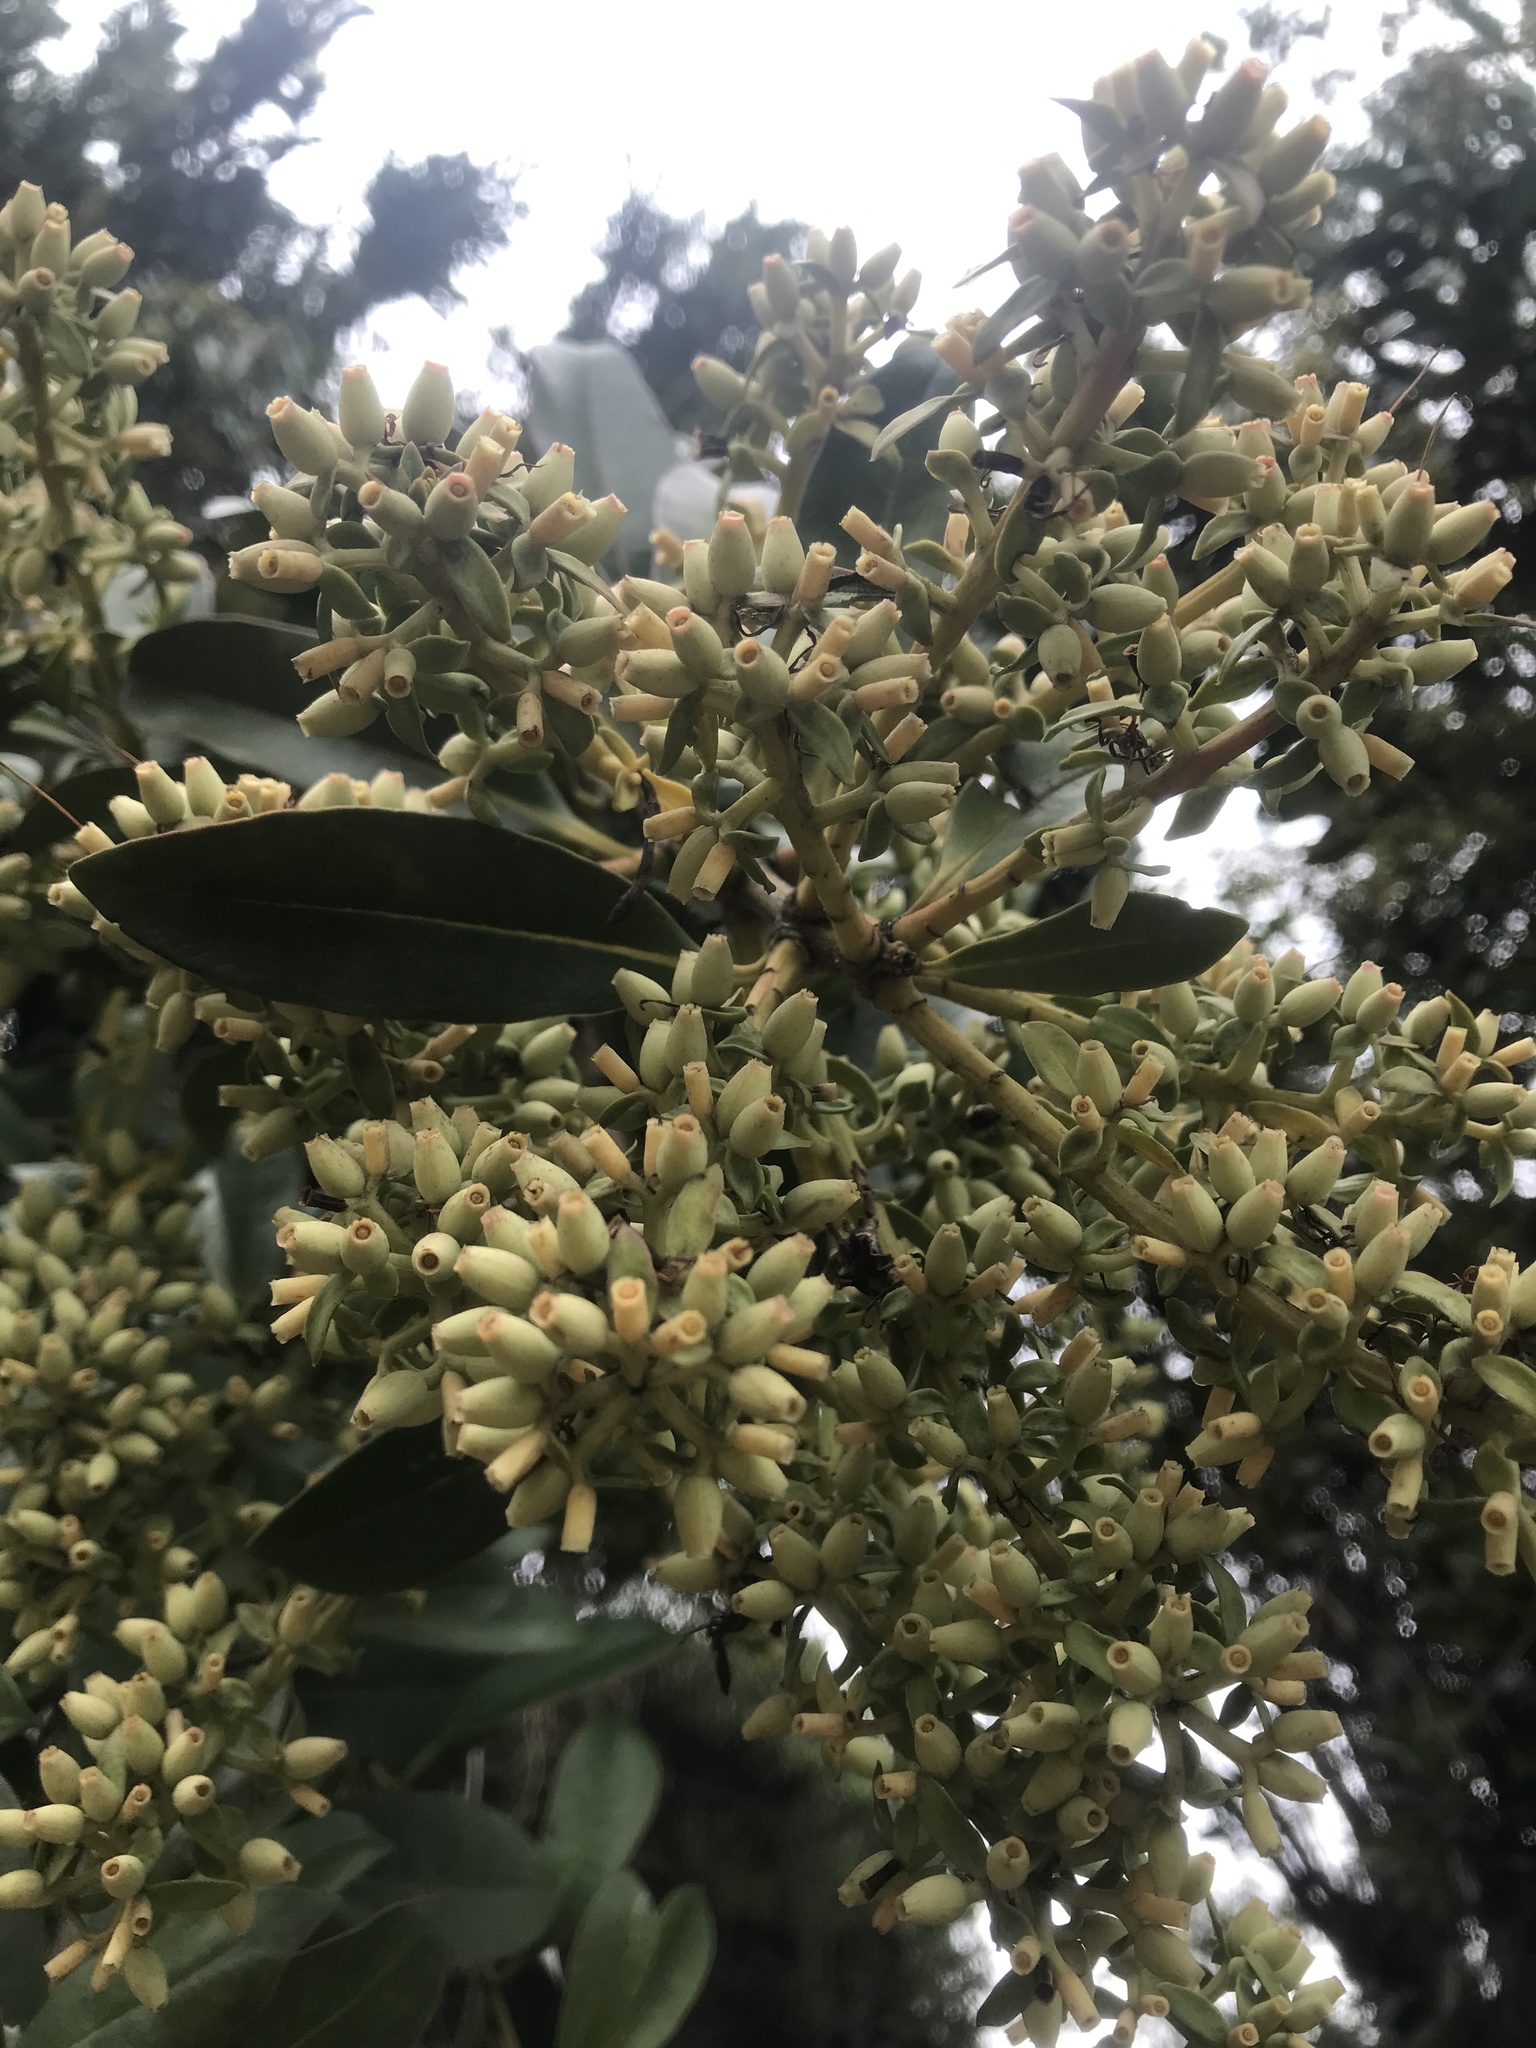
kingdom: Plantae
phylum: Tracheophyta
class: Magnoliopsida
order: Santalales
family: Loranthaceae
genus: Gaiadendron
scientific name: Gaiadendron punctatum
